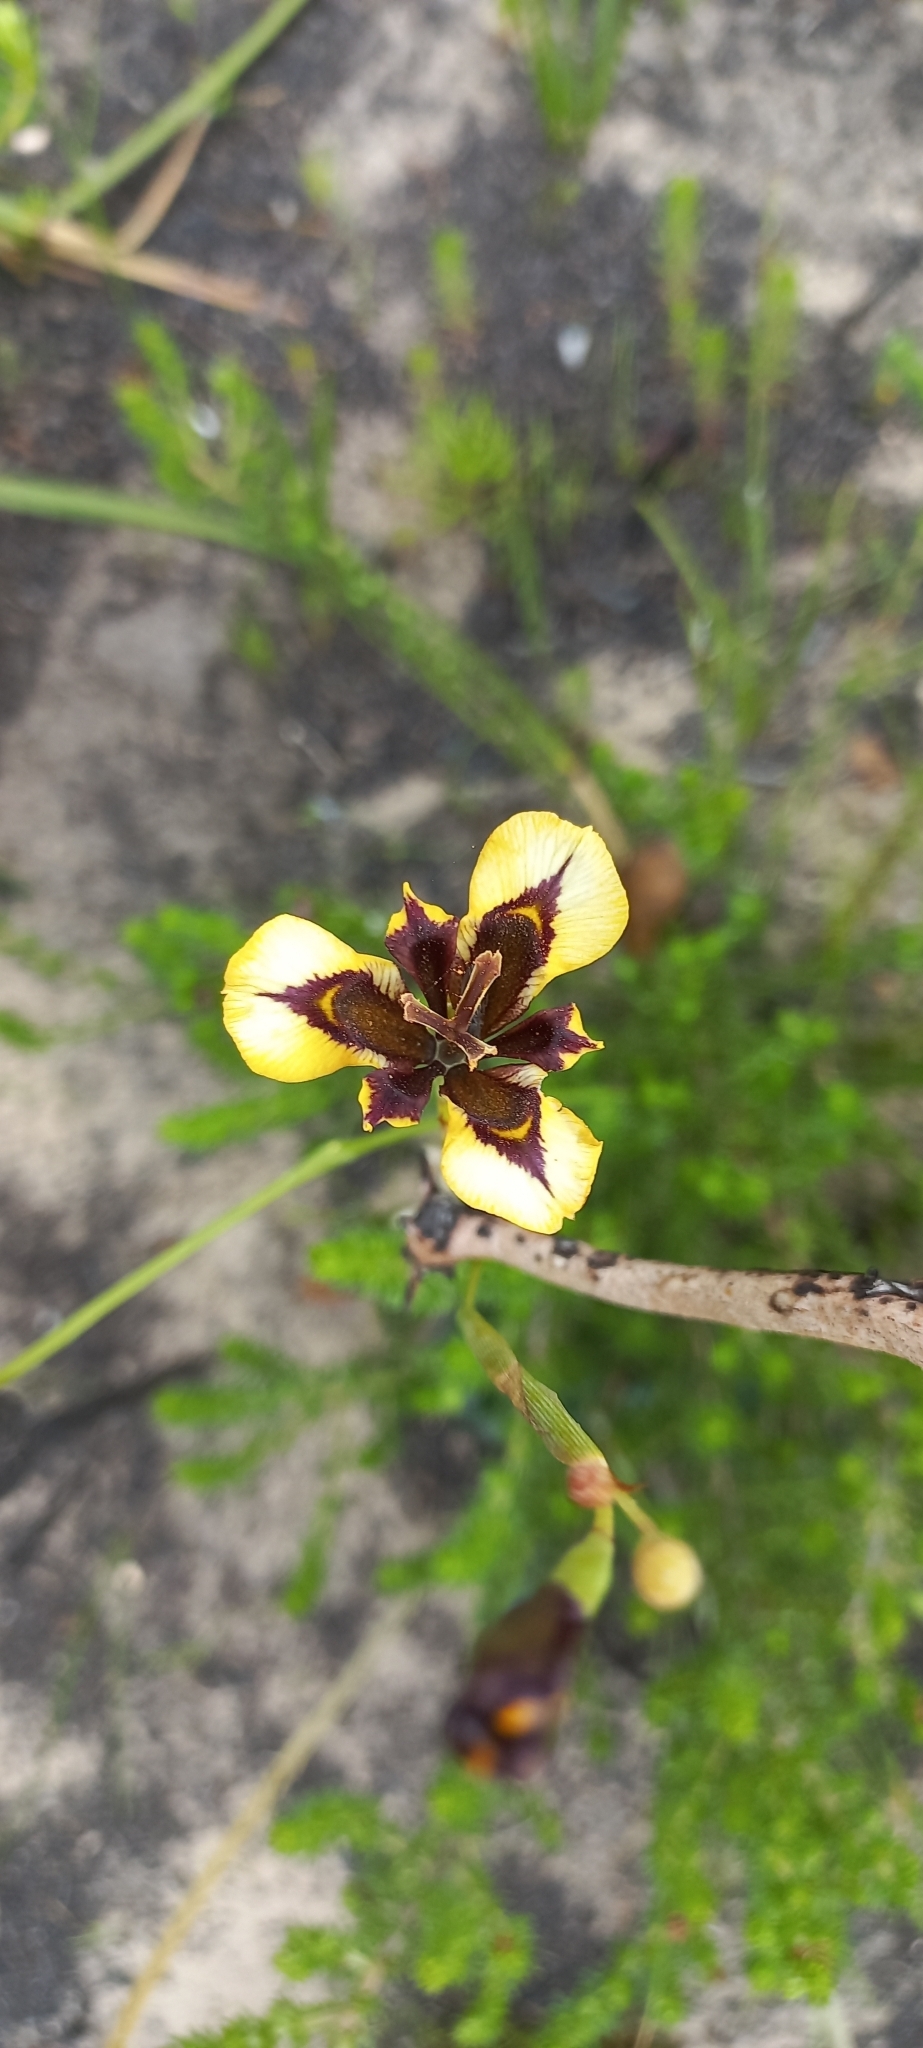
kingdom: Plantae
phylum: Tracheophyta
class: Liliopsida
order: Asparagales
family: Iridaceae
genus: Moraea
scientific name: Moraea lurida
